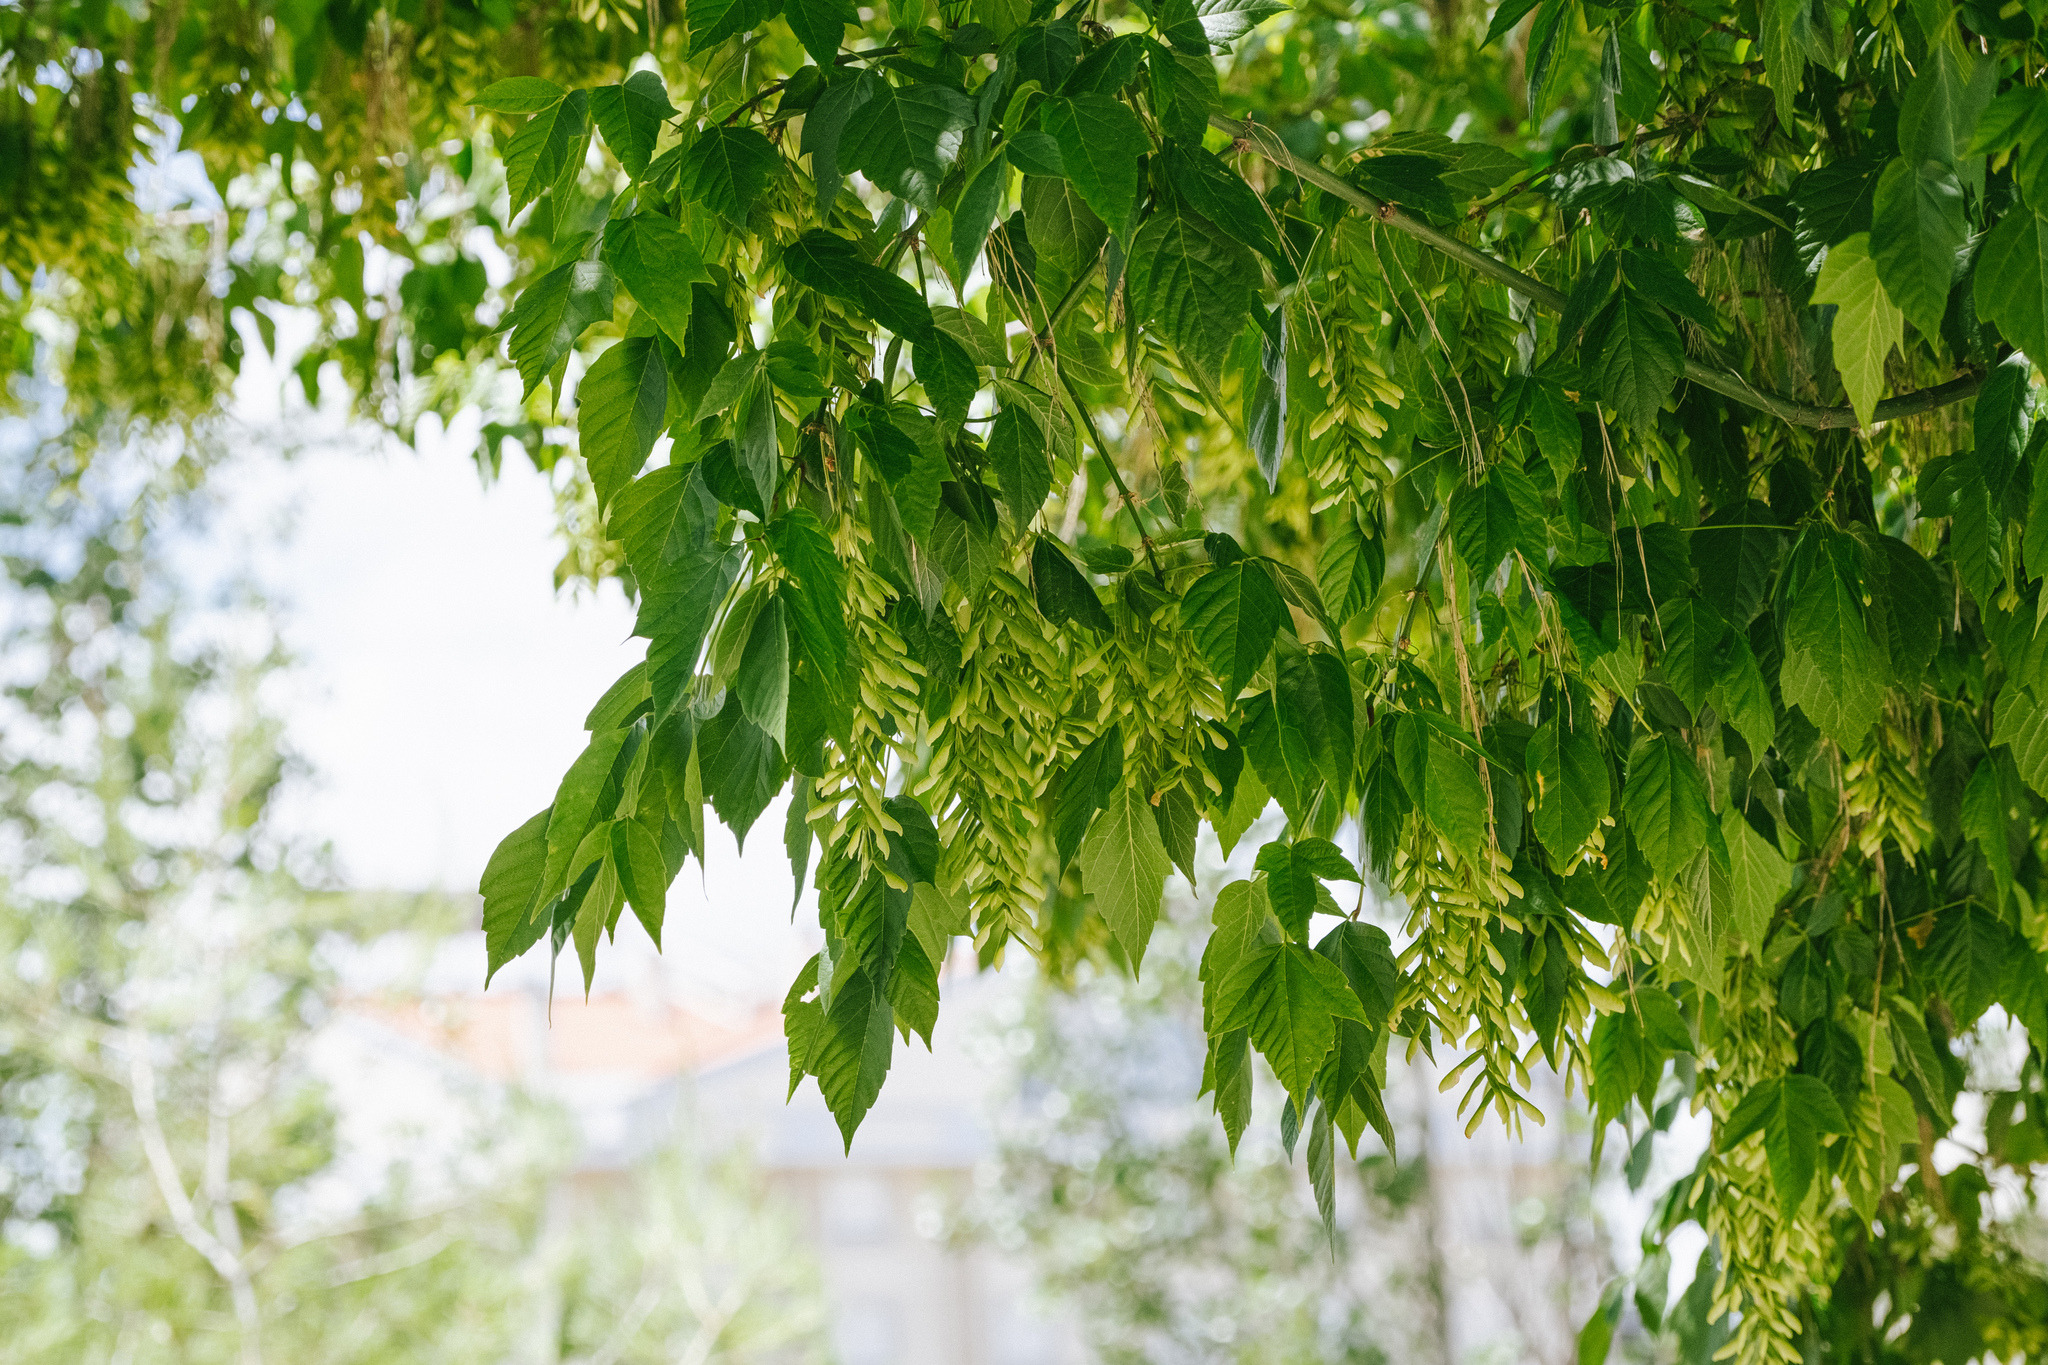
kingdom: Plantae
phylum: Tracheophyta
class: Magnoliopsida
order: Sapindales
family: Sapindaceae
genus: Acer
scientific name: Acer negundo
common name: Ashleaf maple
